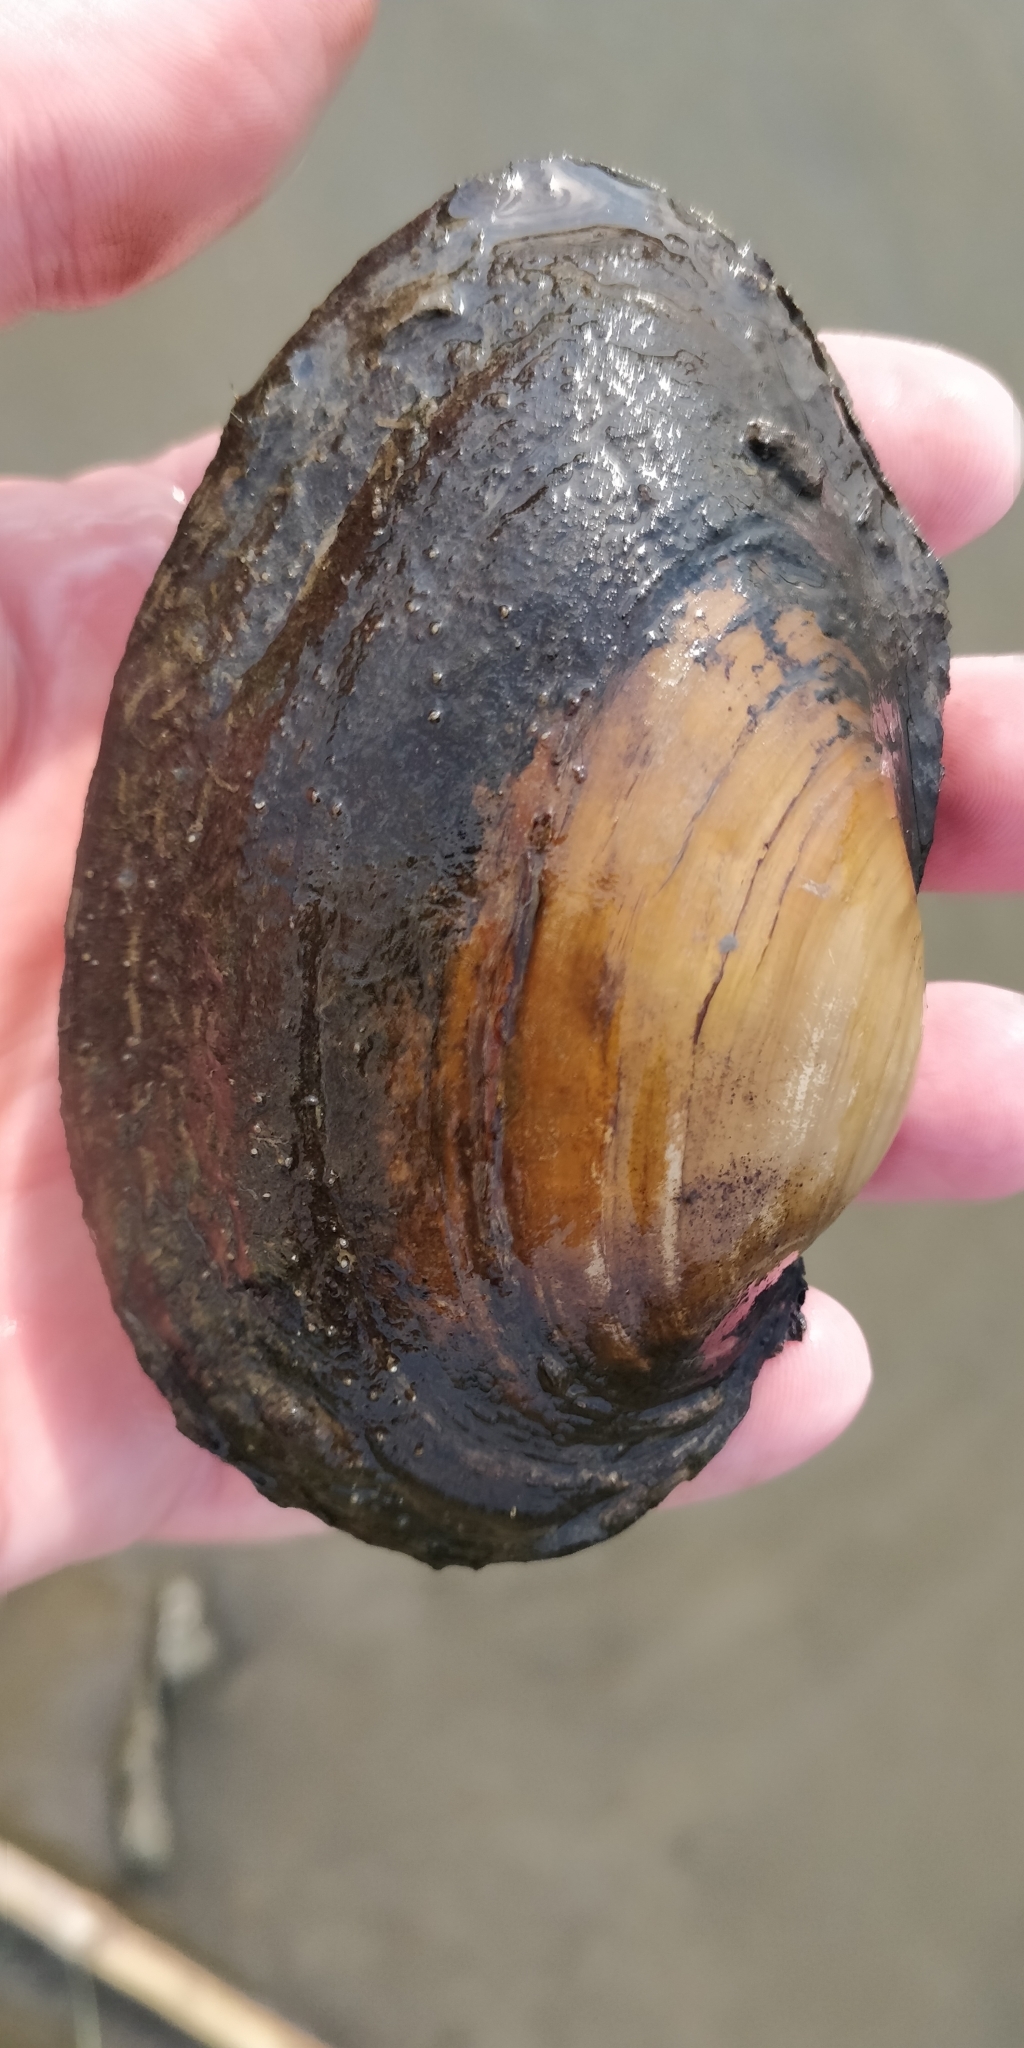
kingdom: Animalia
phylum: Mollusca
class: Bivalvia
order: Unionida
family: Unionidae
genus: Pyganodon
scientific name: Pyganodon grandis
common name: Giant floater
